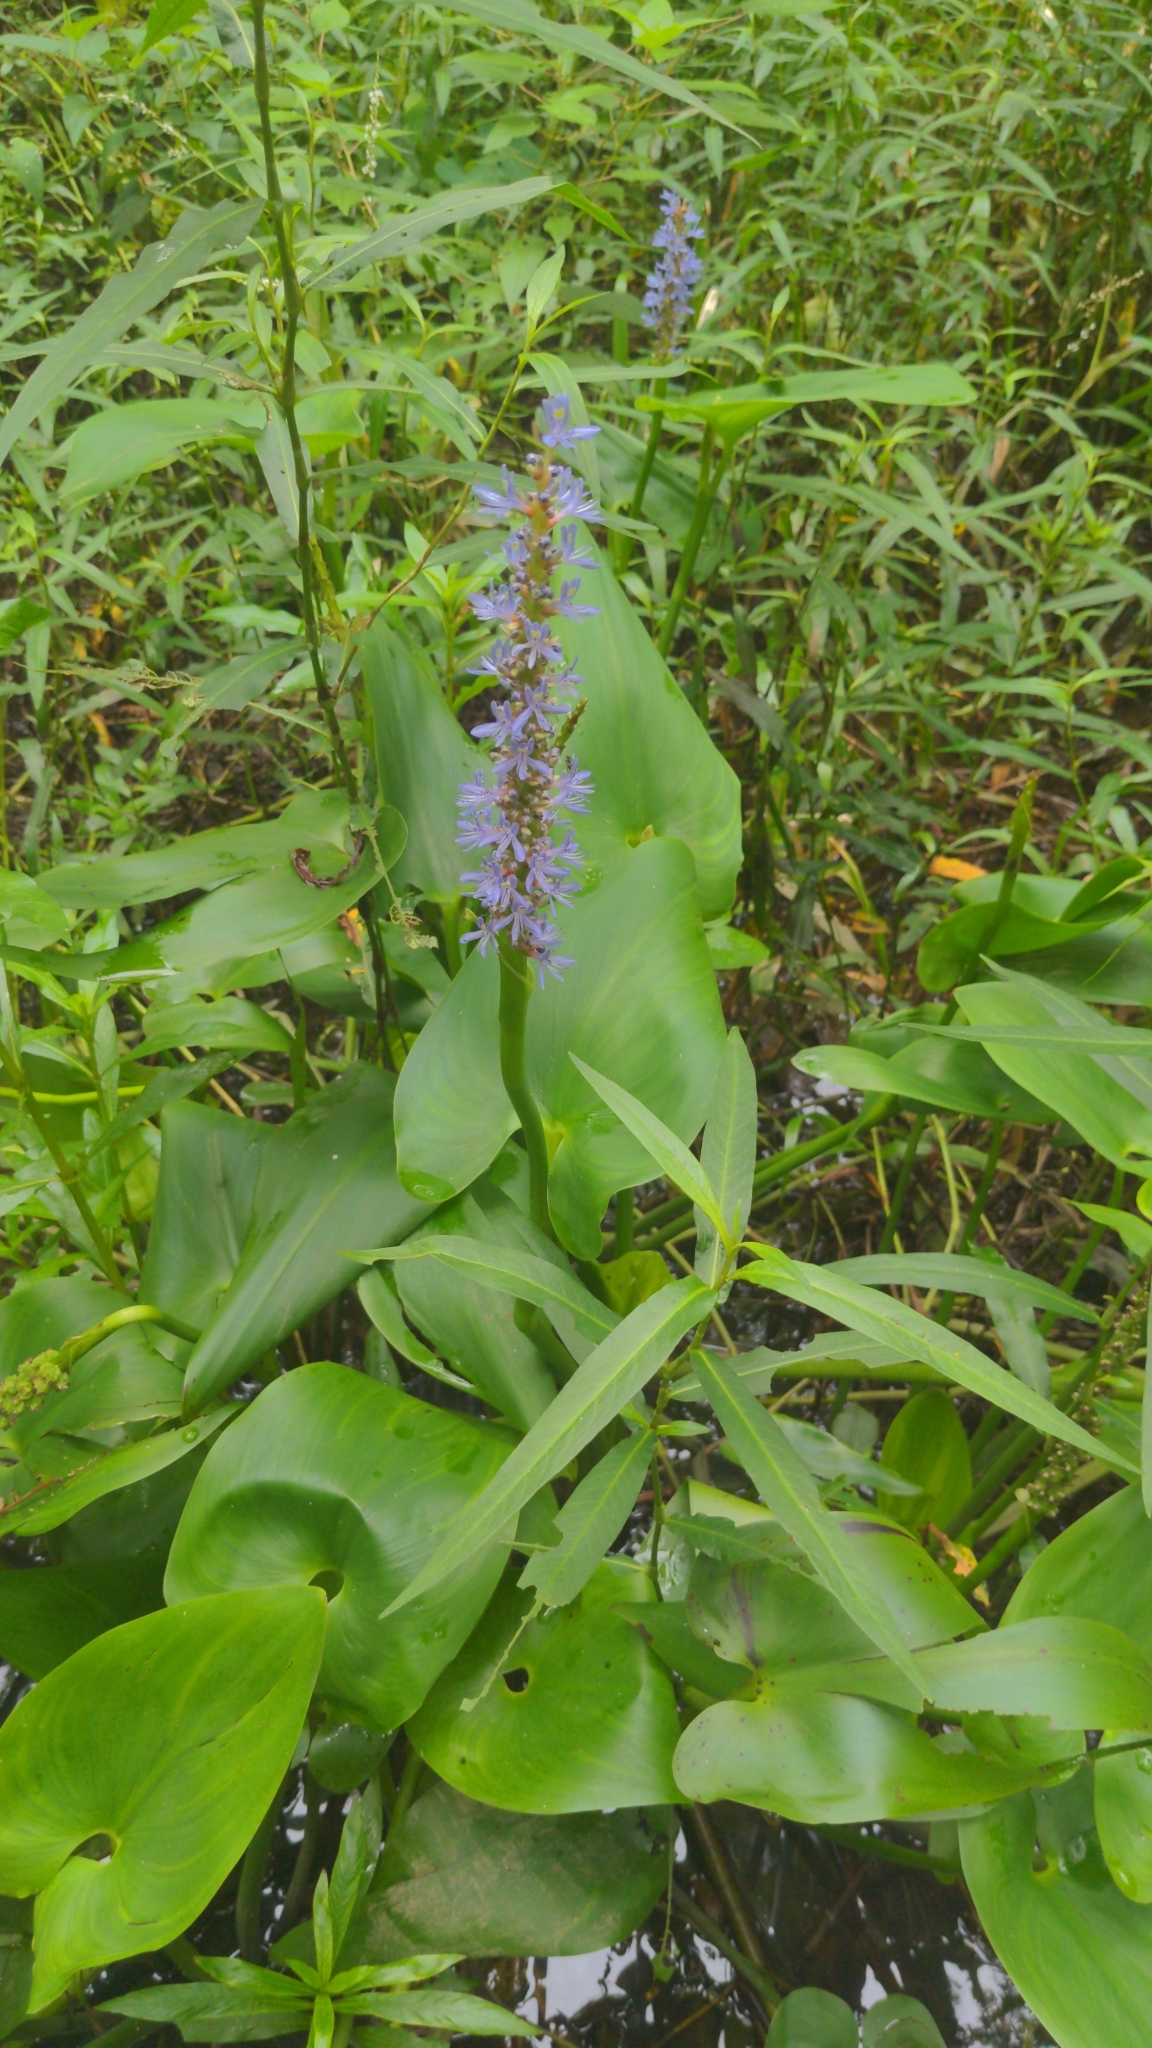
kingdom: Plantae
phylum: Tracheophyta
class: Liliopsida
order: Commelinales
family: Pontederiaceae
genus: Pontederia
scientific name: Pontederia cordata
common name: Pickerelweed
